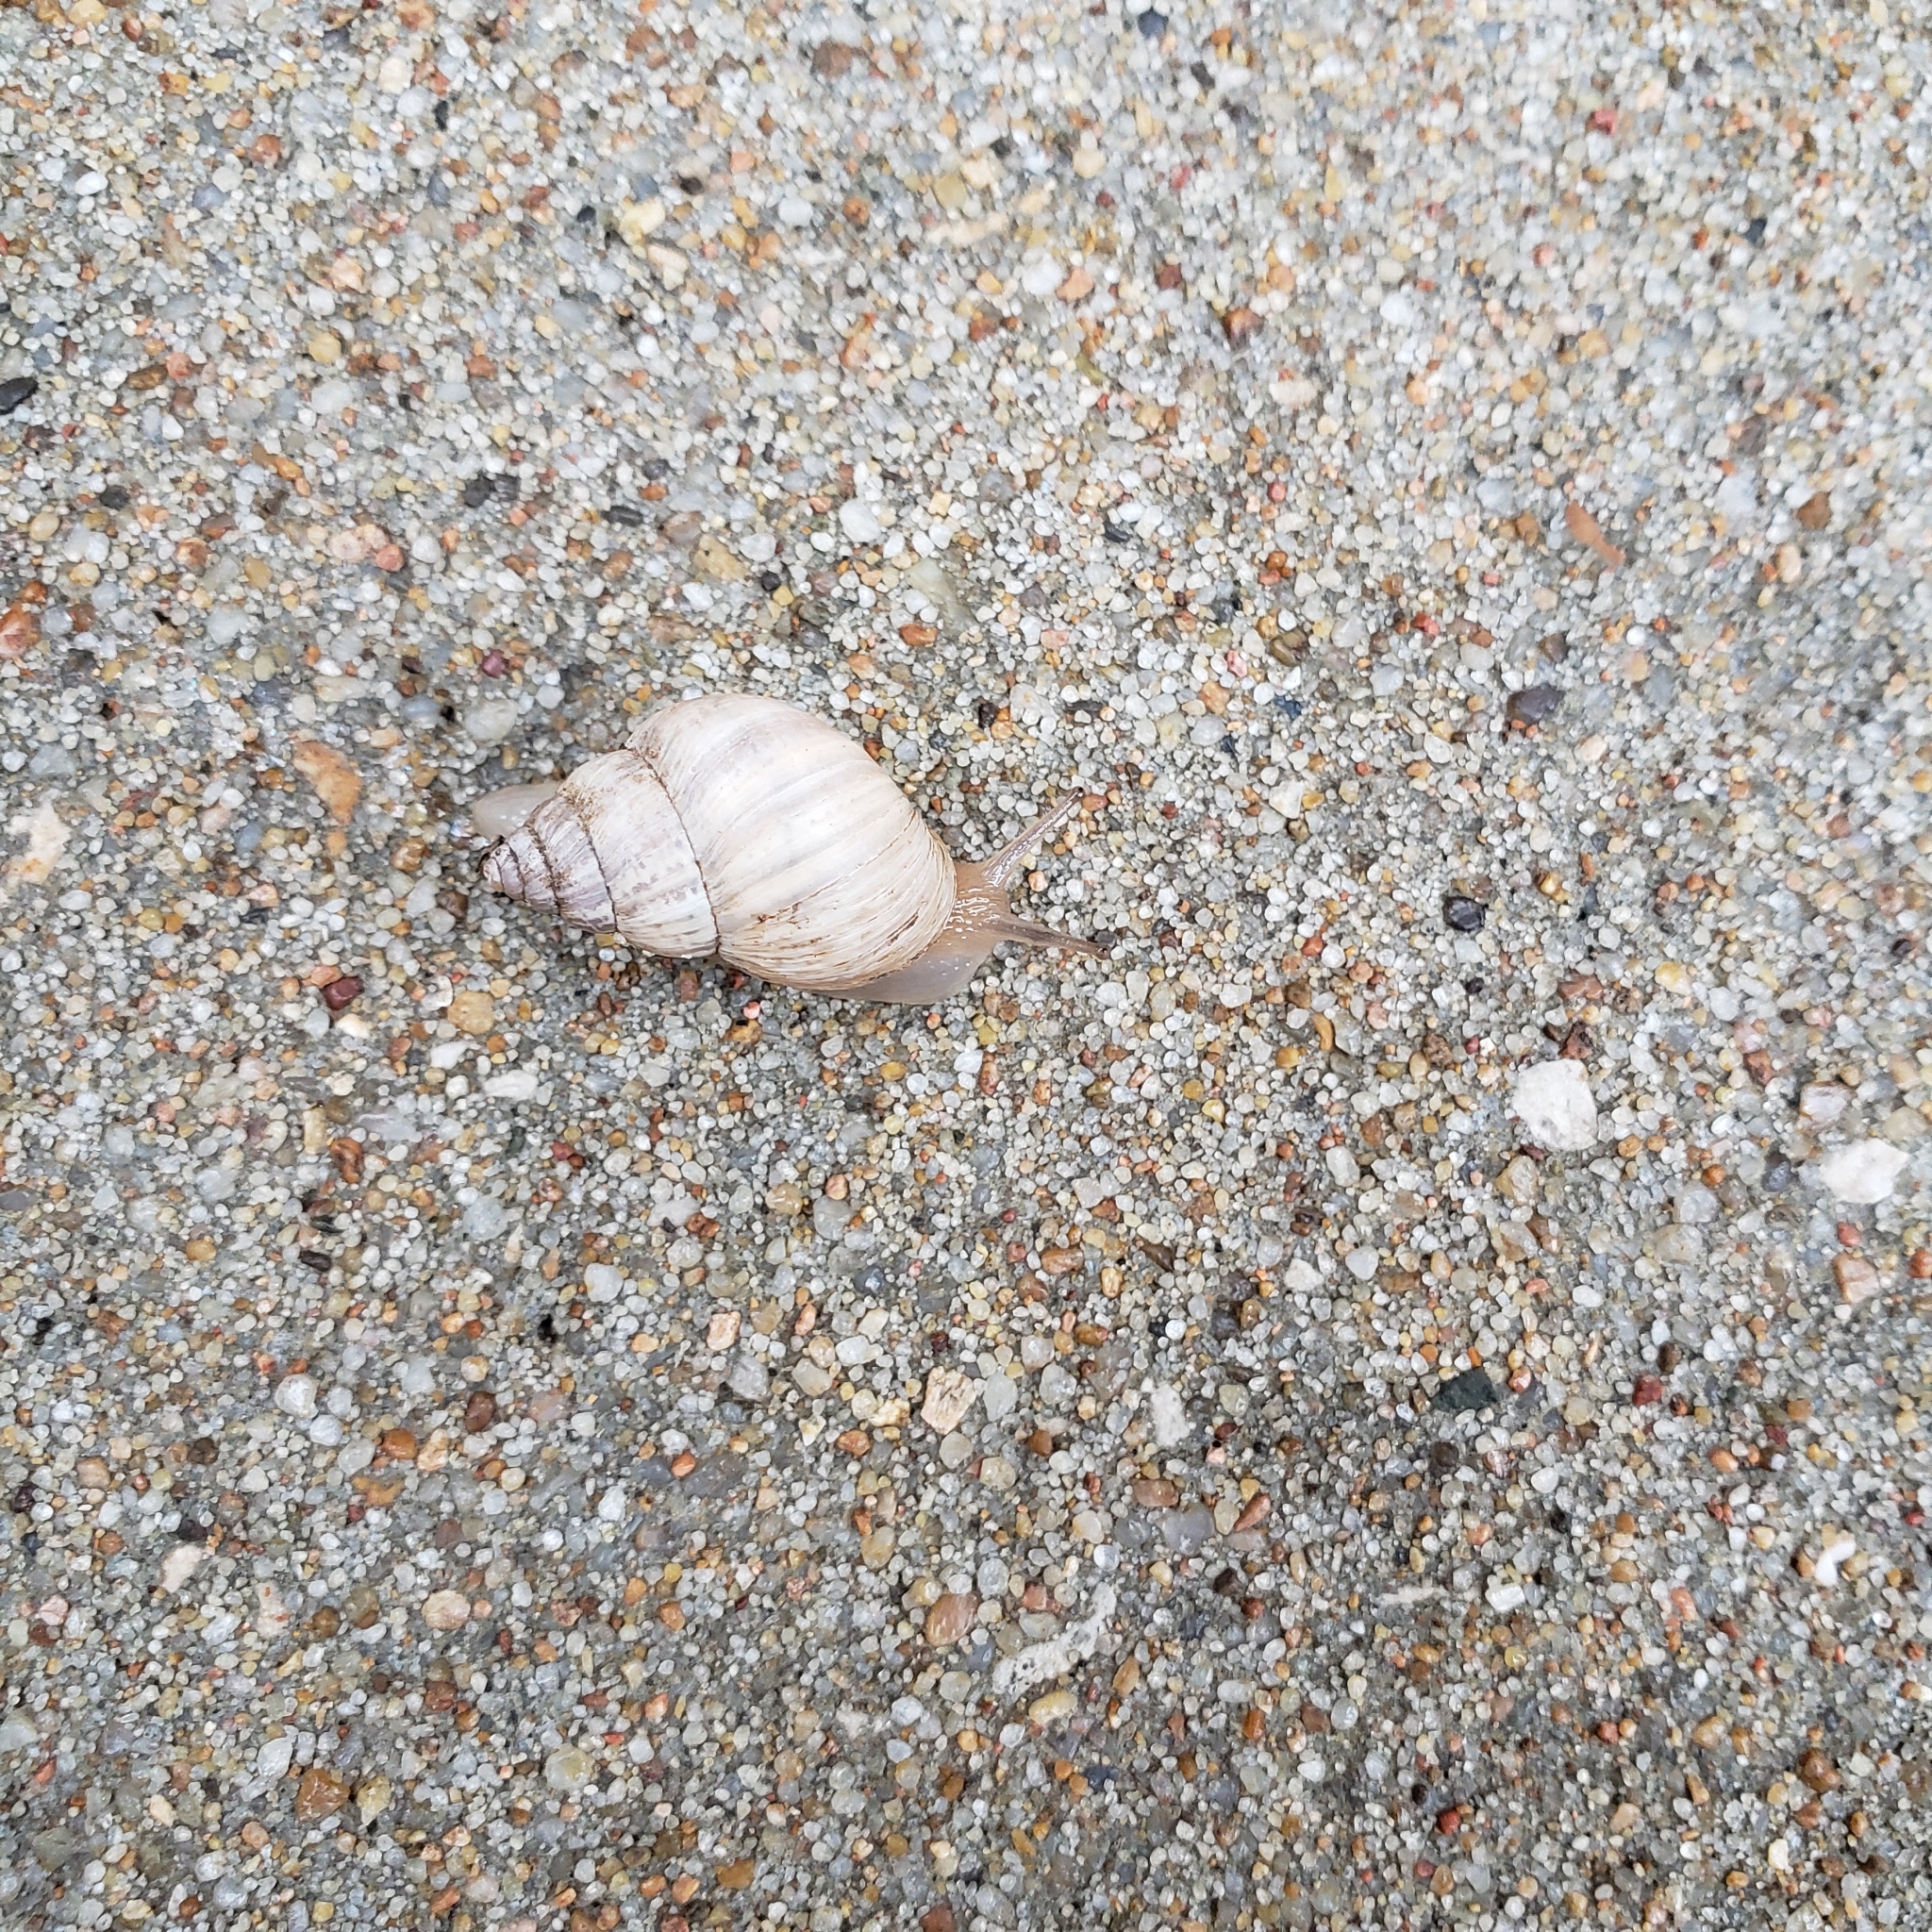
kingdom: Animalia
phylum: Mollusca
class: Gastropoda
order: Stylommatophora
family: Bulimulidae
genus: Rabdotus
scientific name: Rabdotus dealbatus
